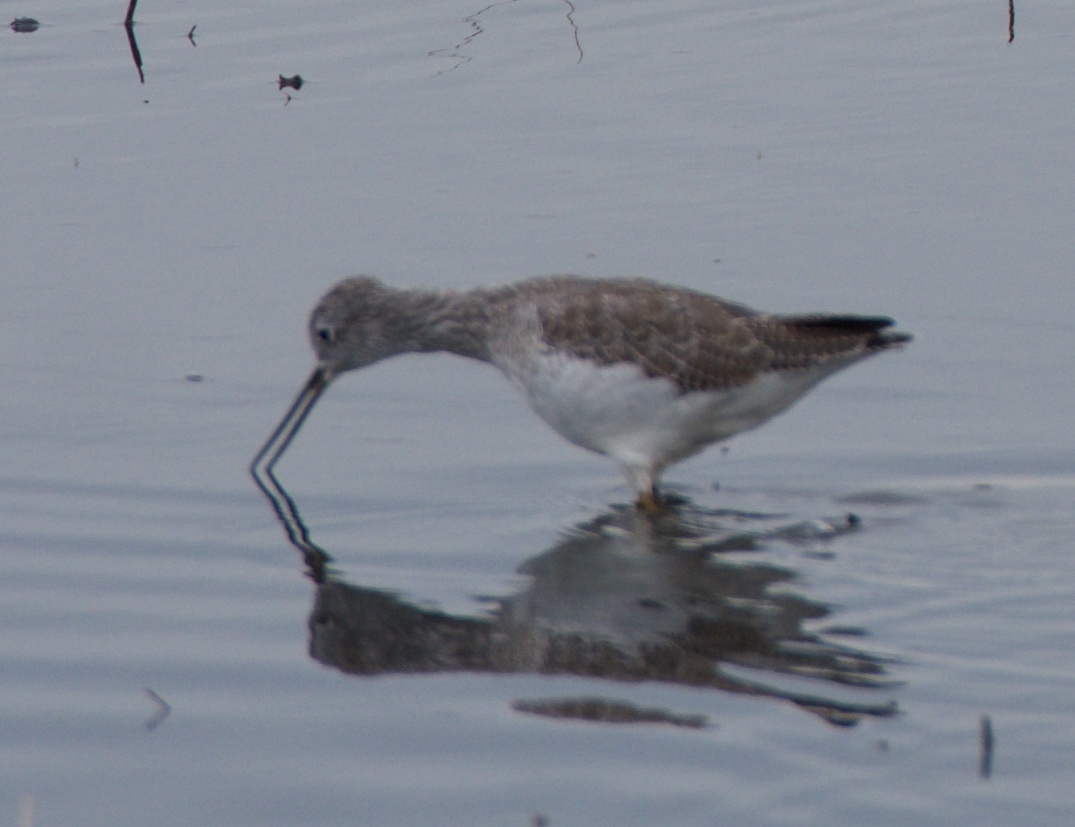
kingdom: Animalia
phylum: Chordata
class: Aves
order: Charadriiformes
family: Scolopacidae
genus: Tringa
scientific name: Tringa melanoleuca
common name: Greater yellowlegs
